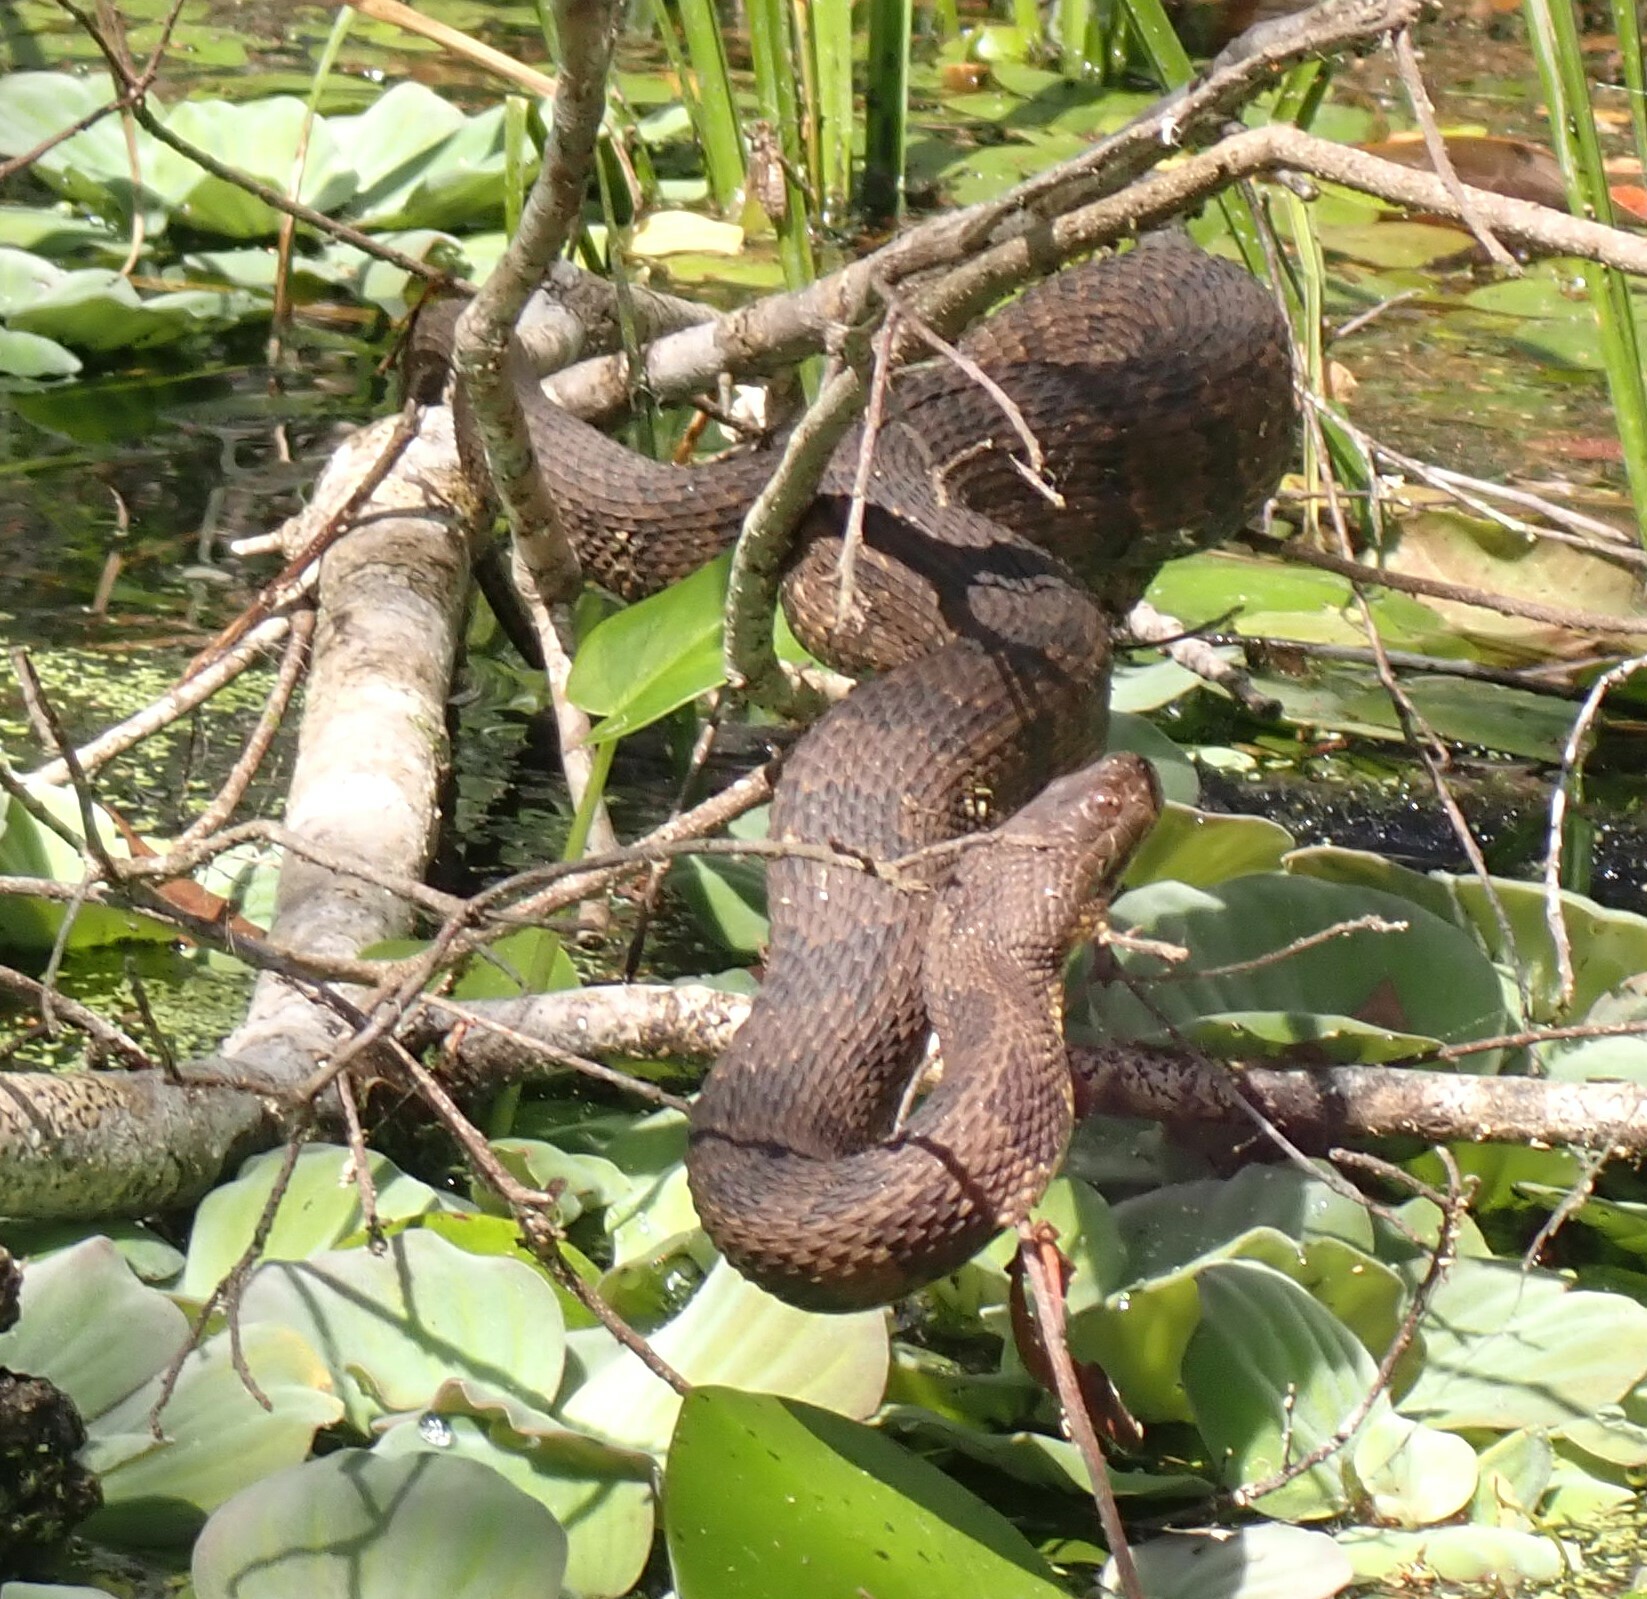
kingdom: Animalia
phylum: Chordata
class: Squamata
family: Colubridae
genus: Nerodia
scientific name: Nerodia taxispilota
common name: Brown water snake
